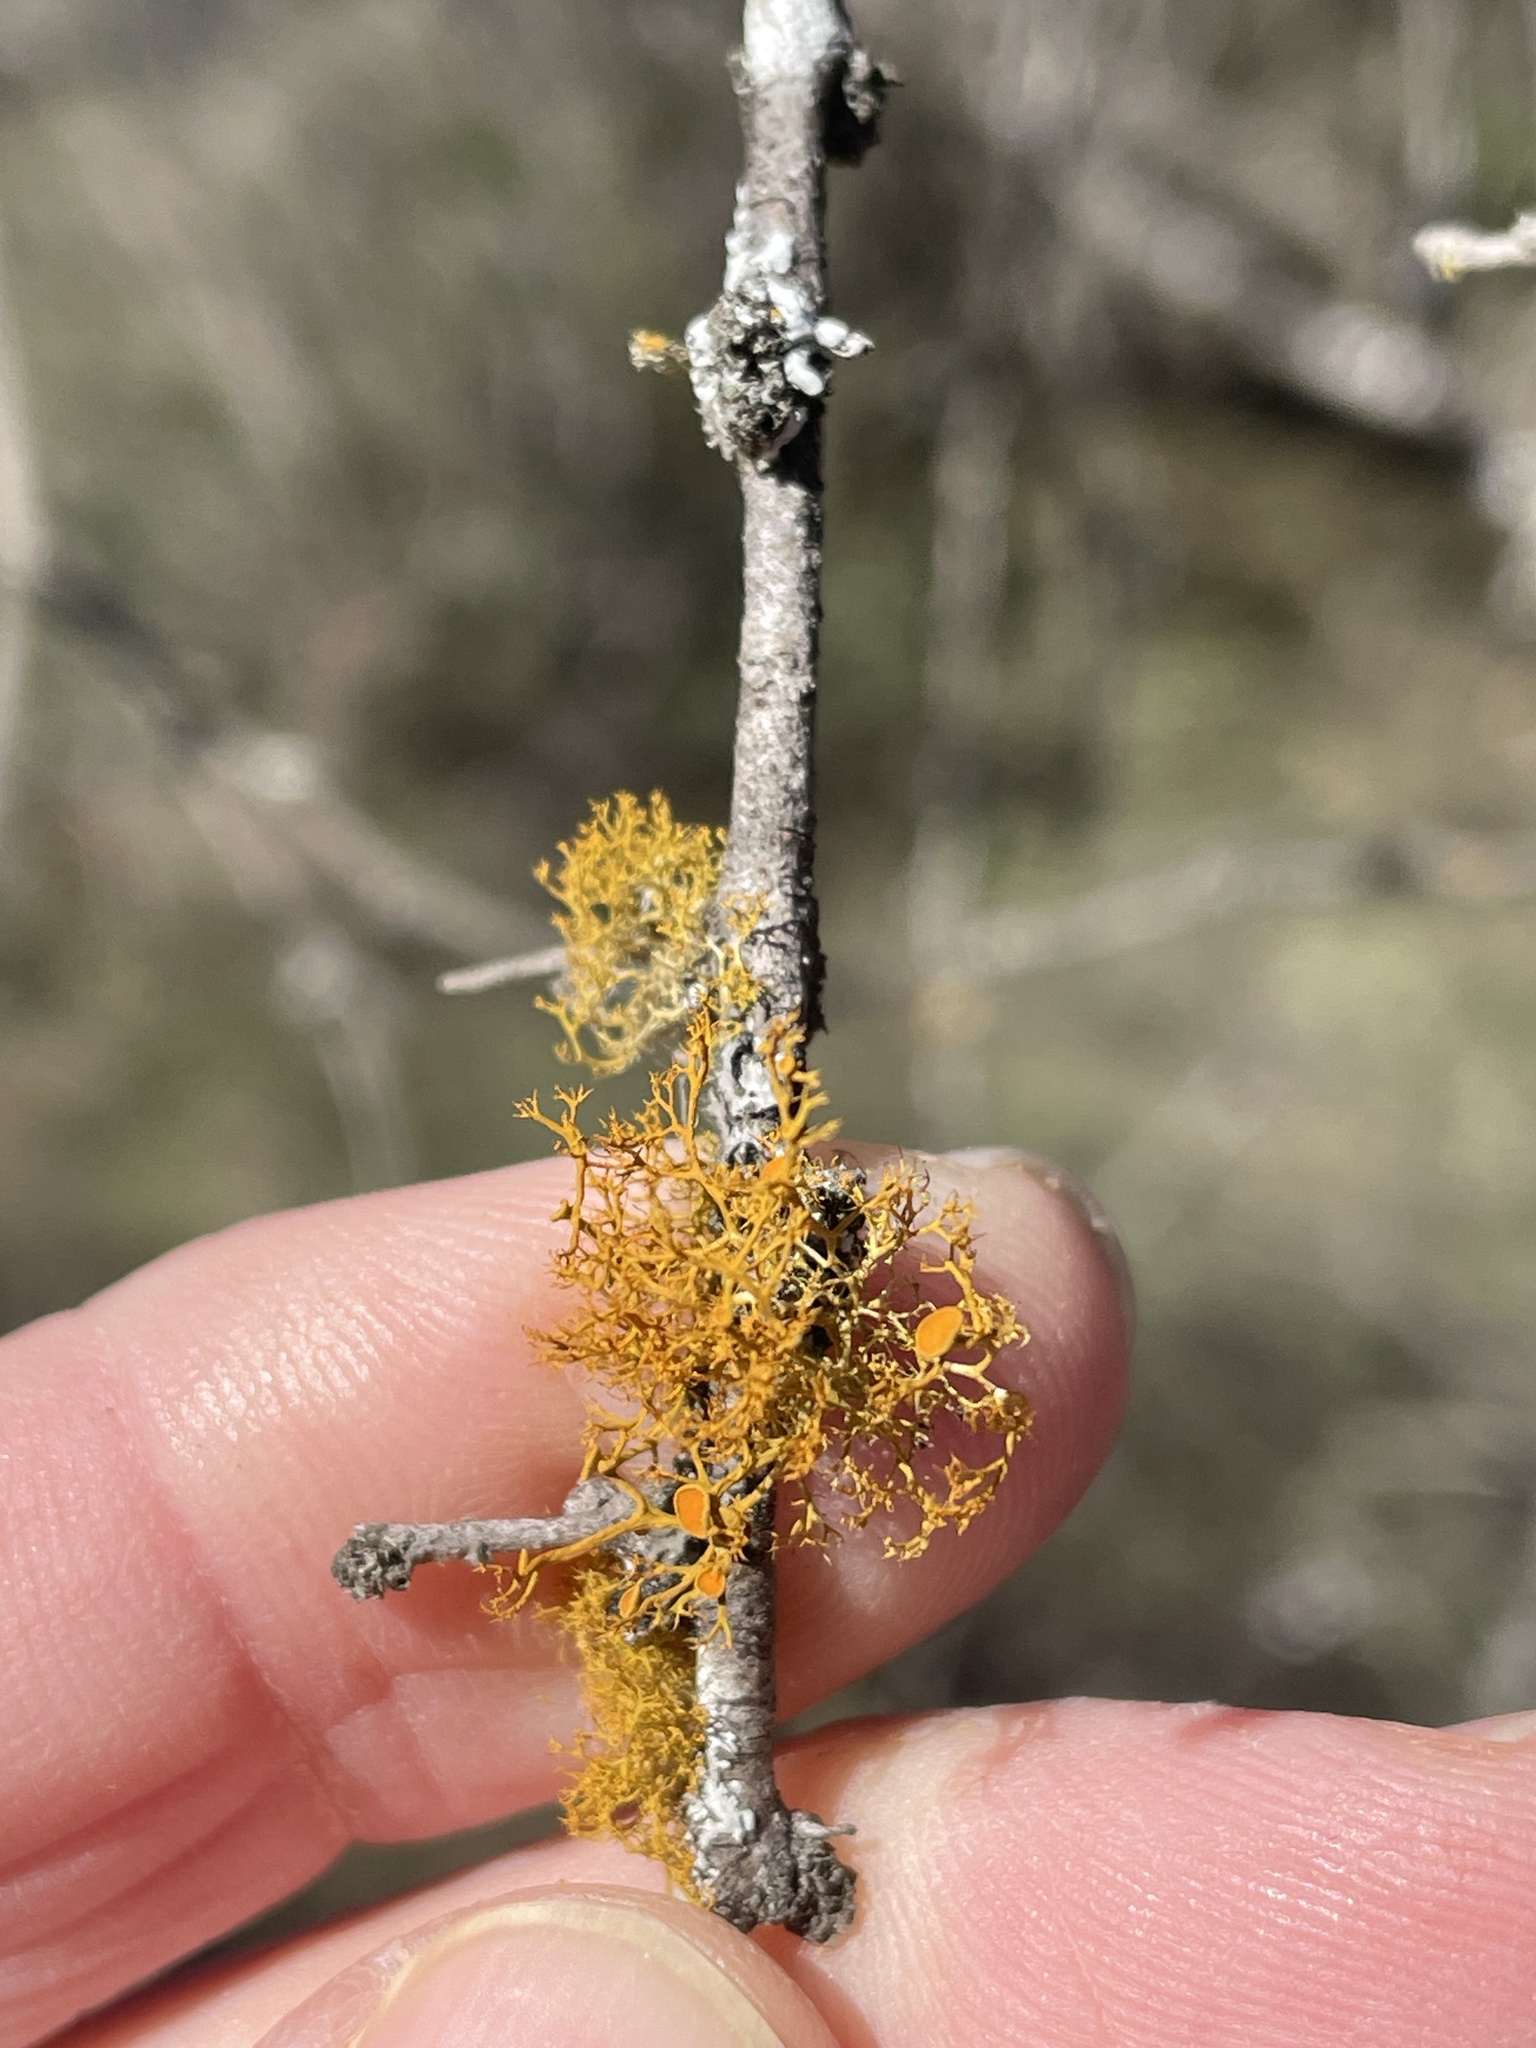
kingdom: Fungi
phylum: Ascomycota
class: Lecanoromycetes
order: Teloschistales
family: Teloschistaceae
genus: Teloschistes
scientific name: Teloschistes exilis
